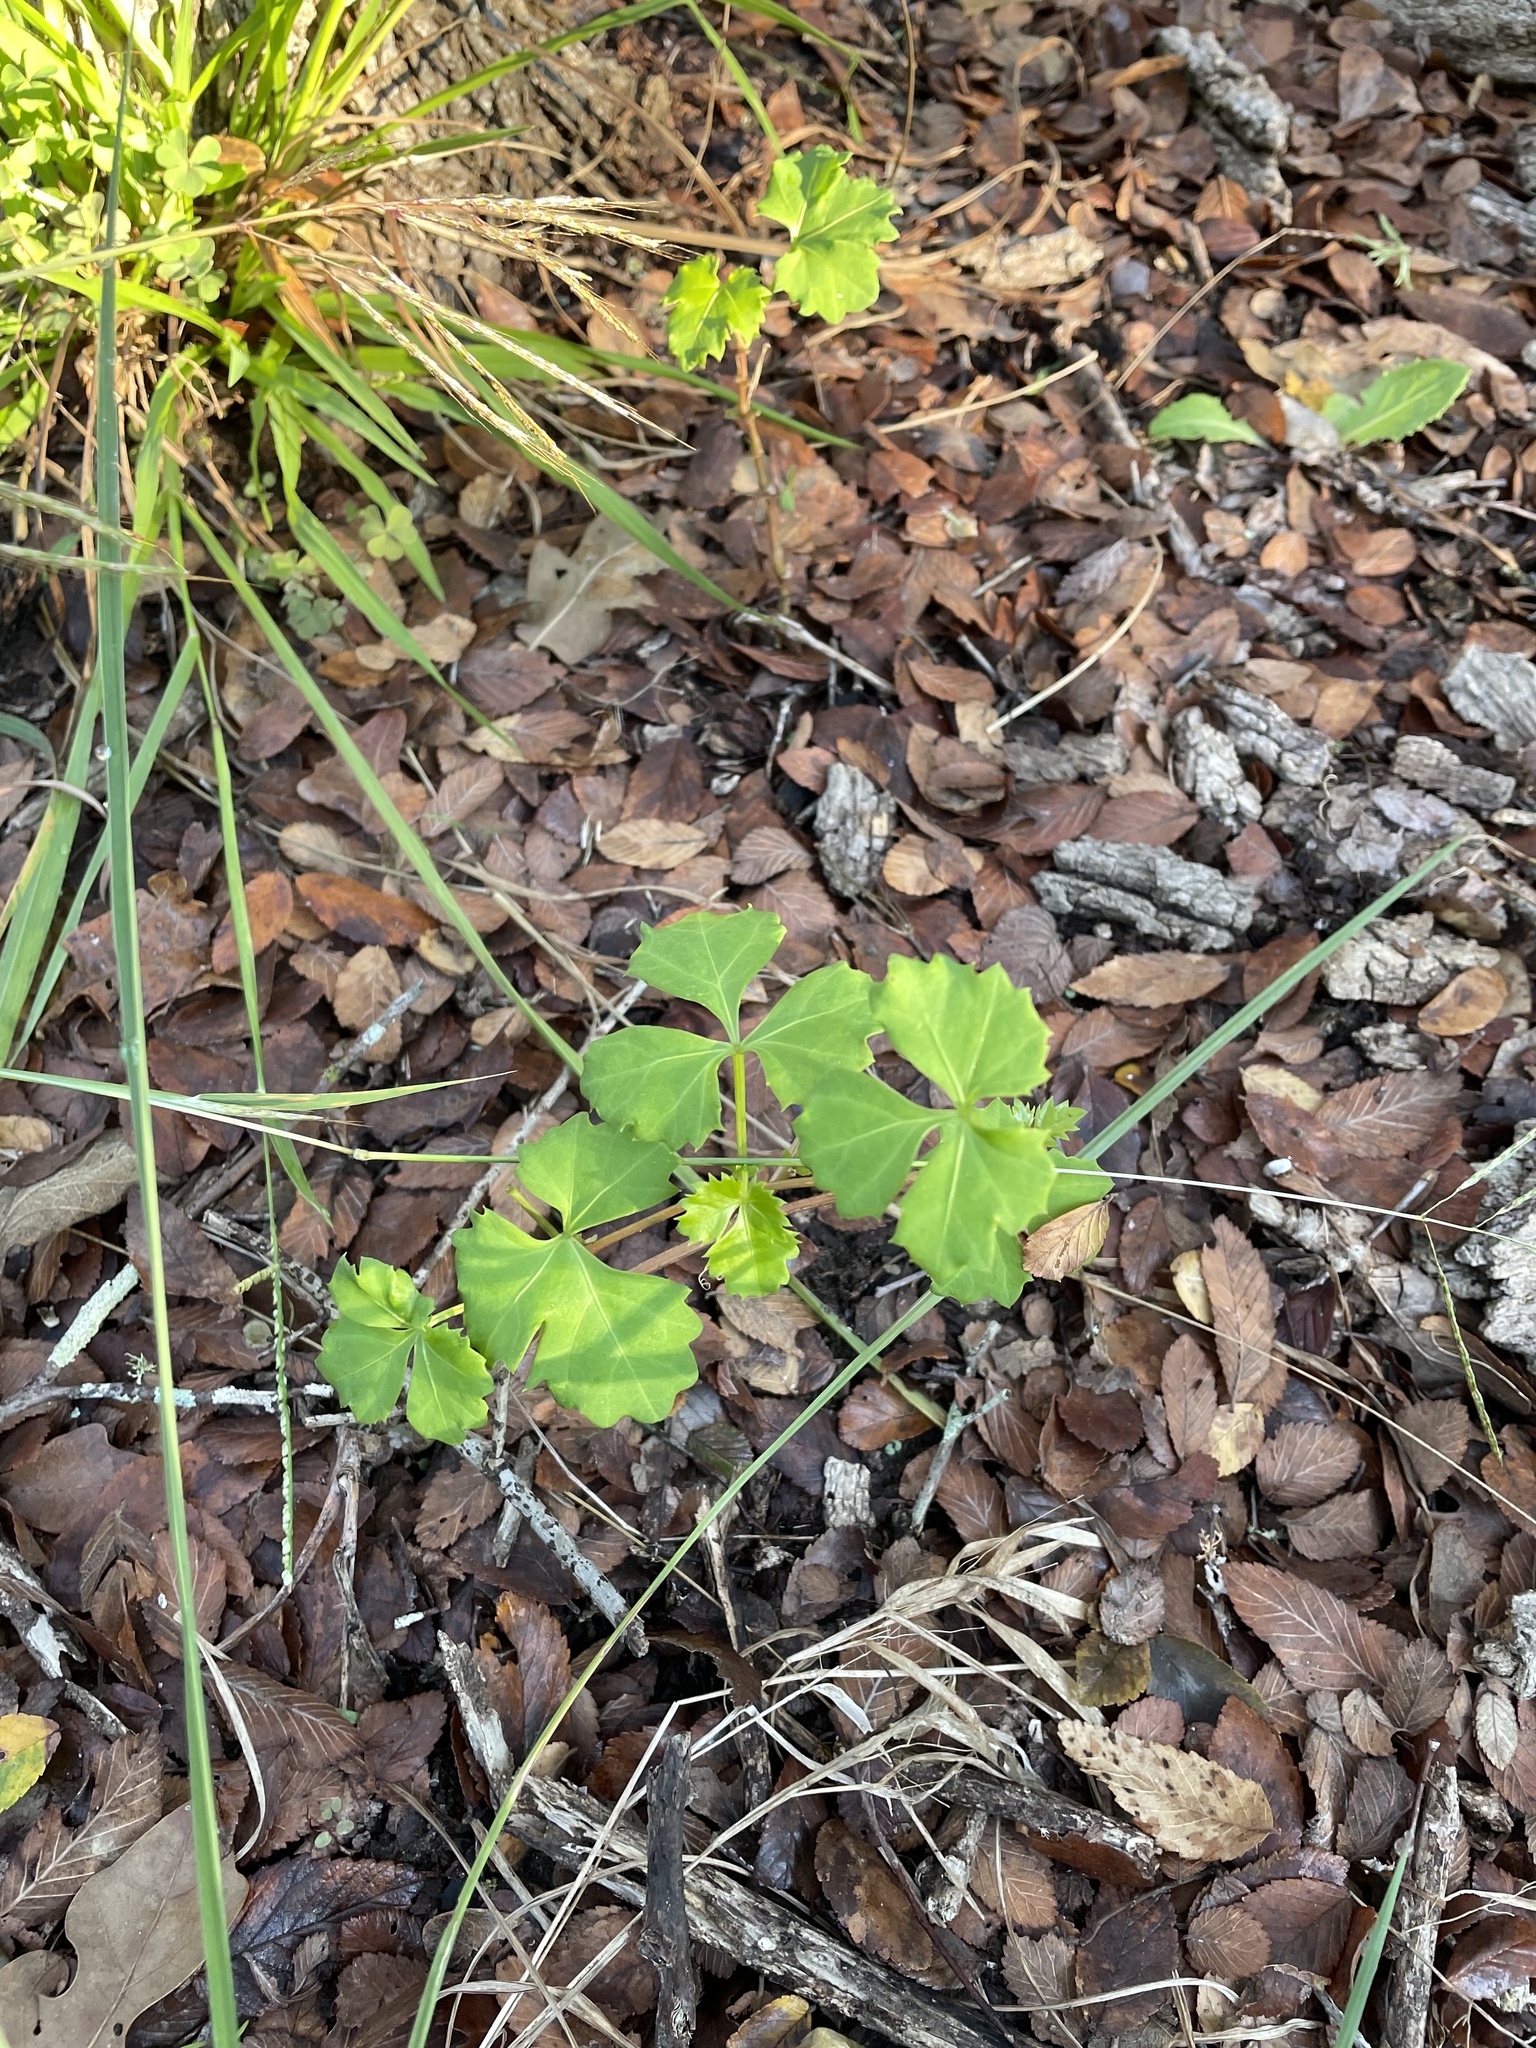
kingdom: Plantae
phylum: Tracheophyta
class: Magnoliopsida
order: Vitales
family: Vitaceae
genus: Cissus
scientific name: Cissus trifoliata
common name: Vine-sorrel
